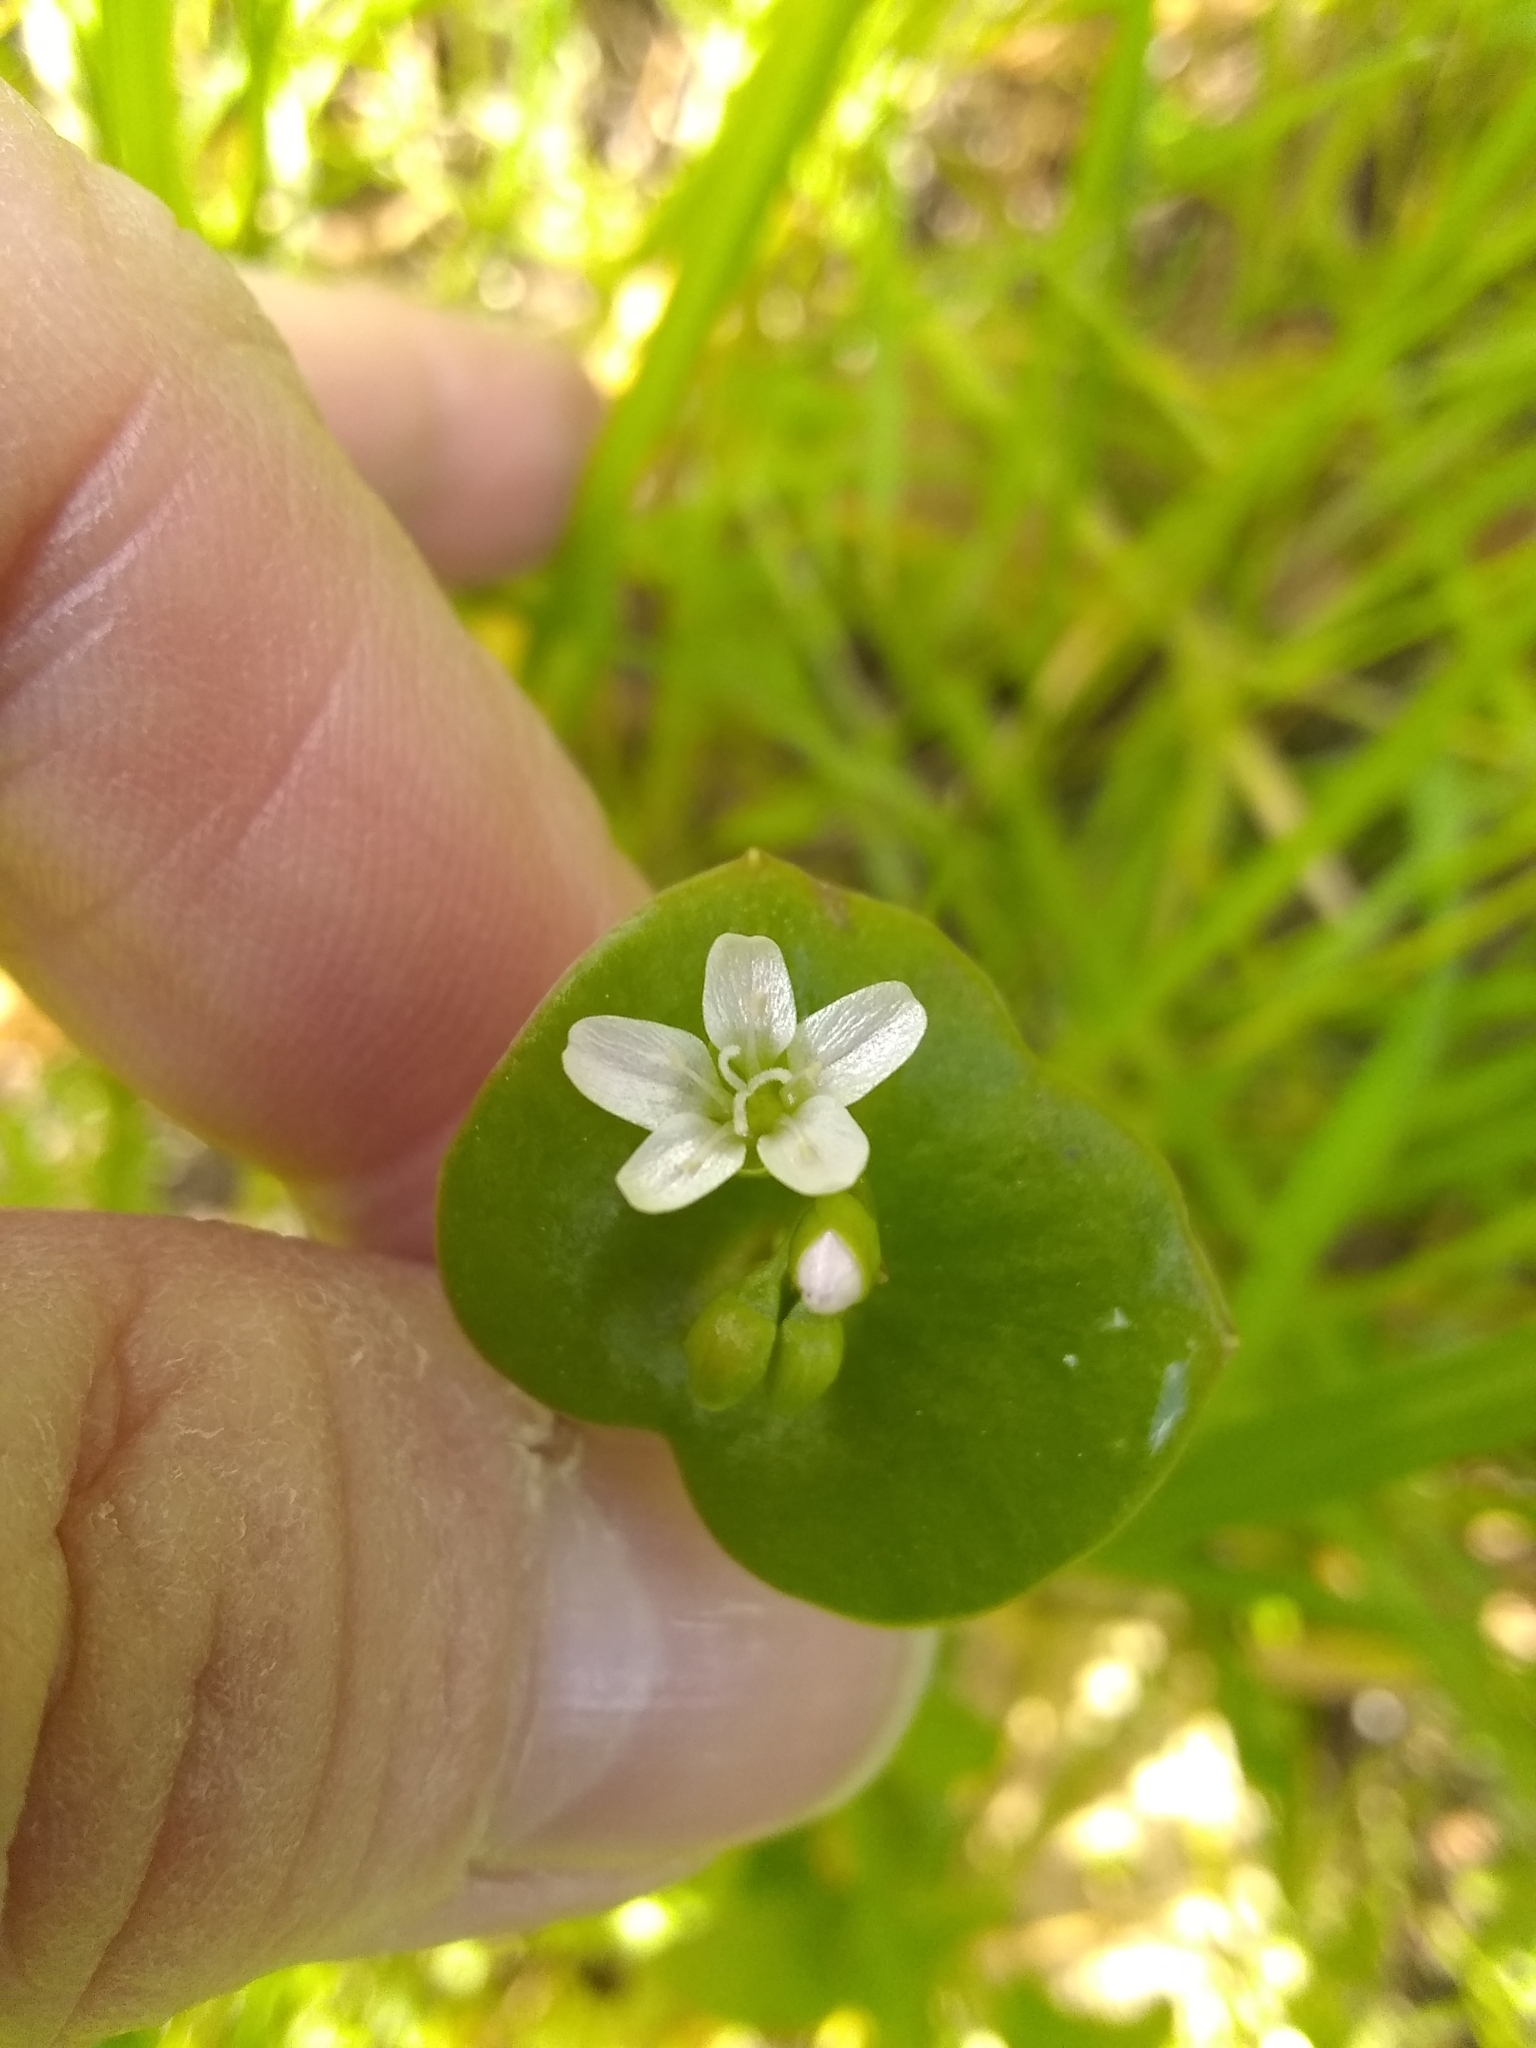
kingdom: Plantae
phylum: Tracheophyta
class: Magnoliopsida
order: Caryophyllales
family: Montiaceae
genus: Claytonia
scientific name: Claytonia perfoliata
